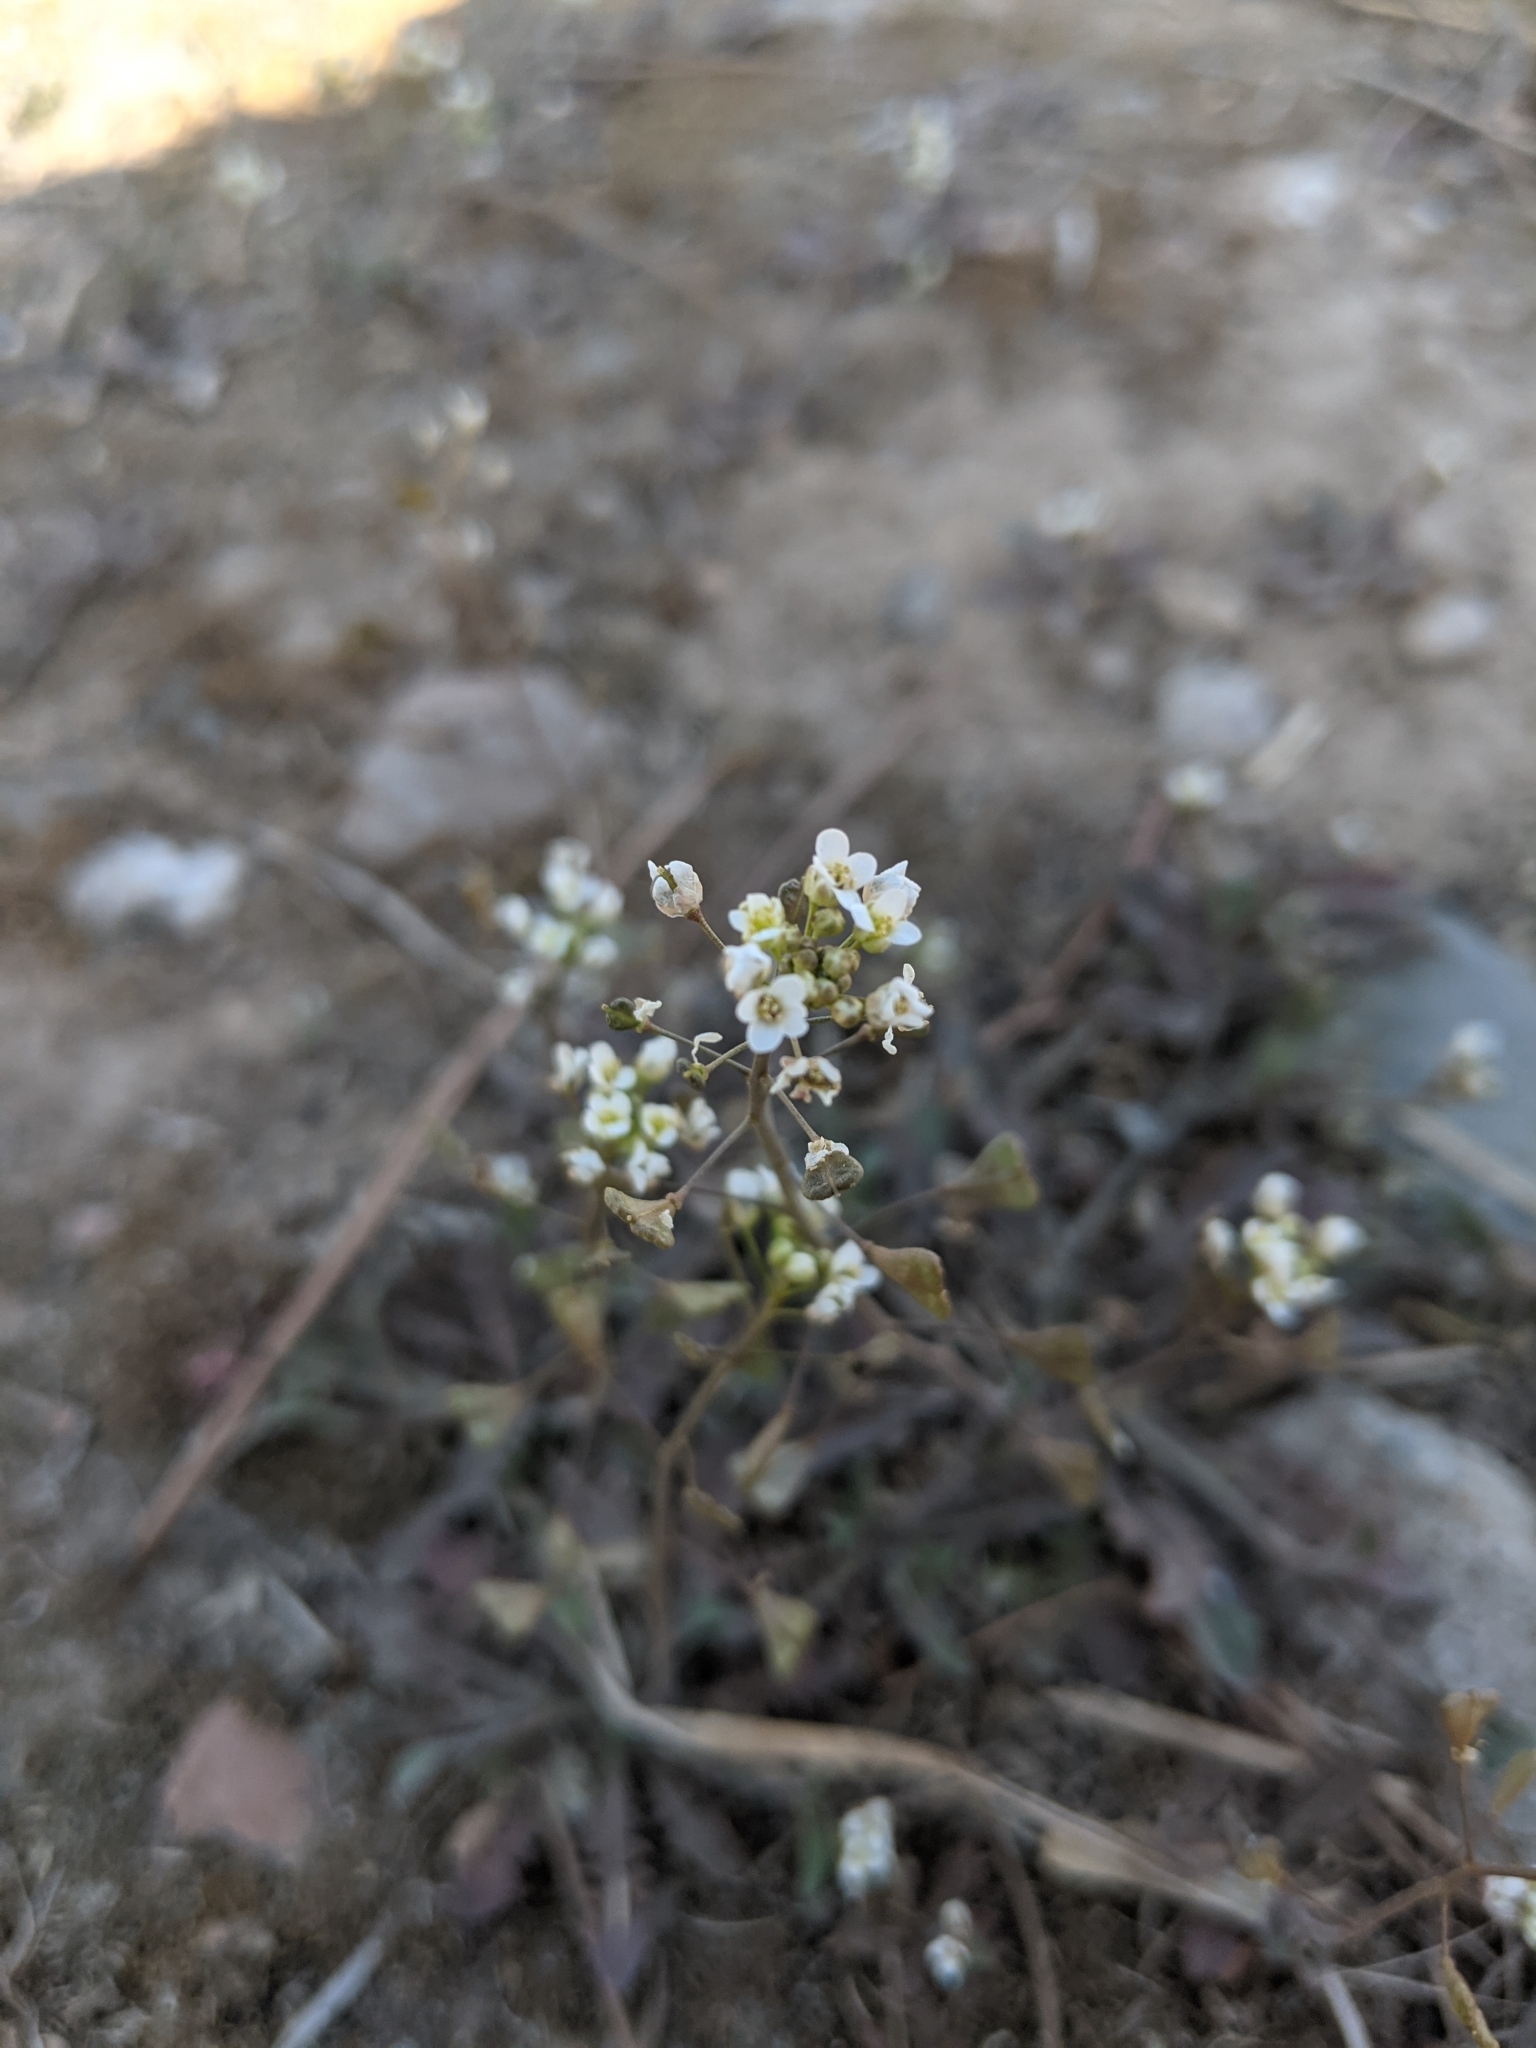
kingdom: Plantae
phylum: Tracheophyta
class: Magnoliopsida
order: Brassicales
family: Brassicaceae
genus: Capsella
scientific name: Capsella bursa-pastoris
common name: Shepherd's purse
